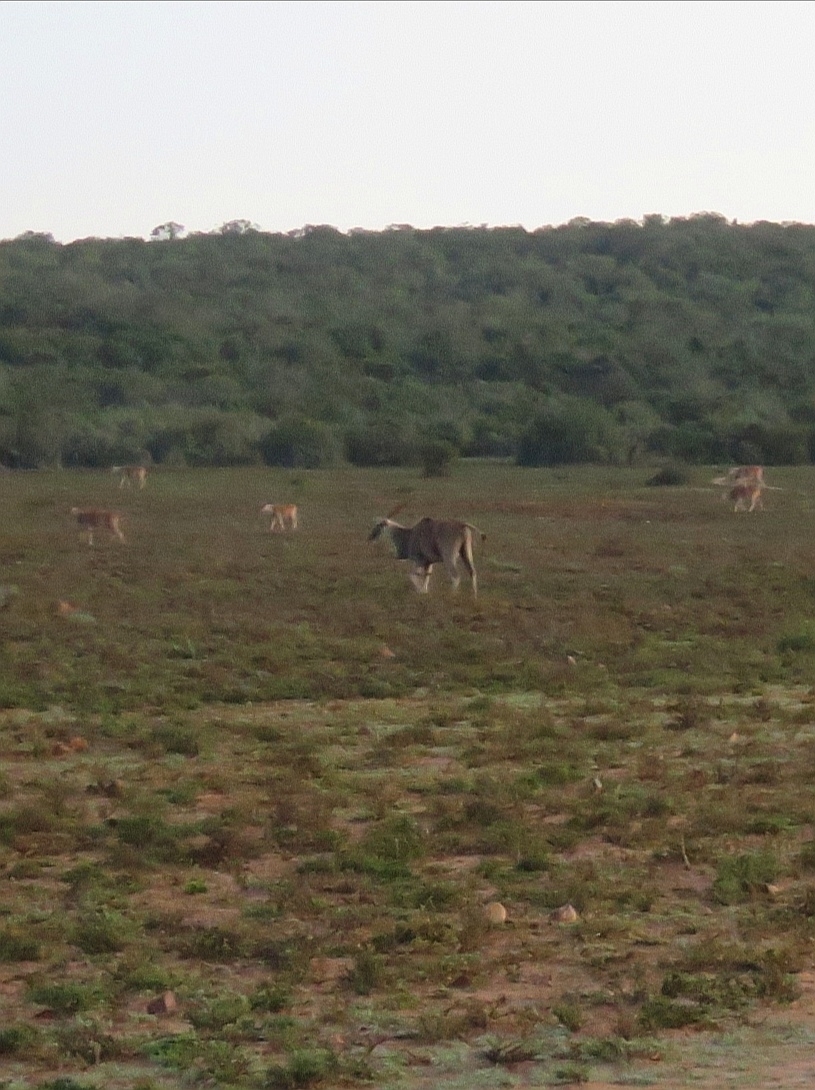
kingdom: Animalia
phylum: Chordata
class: Mammalia
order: Artiodactyla
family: Bovidae
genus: Taurotragus
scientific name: Taurotragus oryx
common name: Common eland
